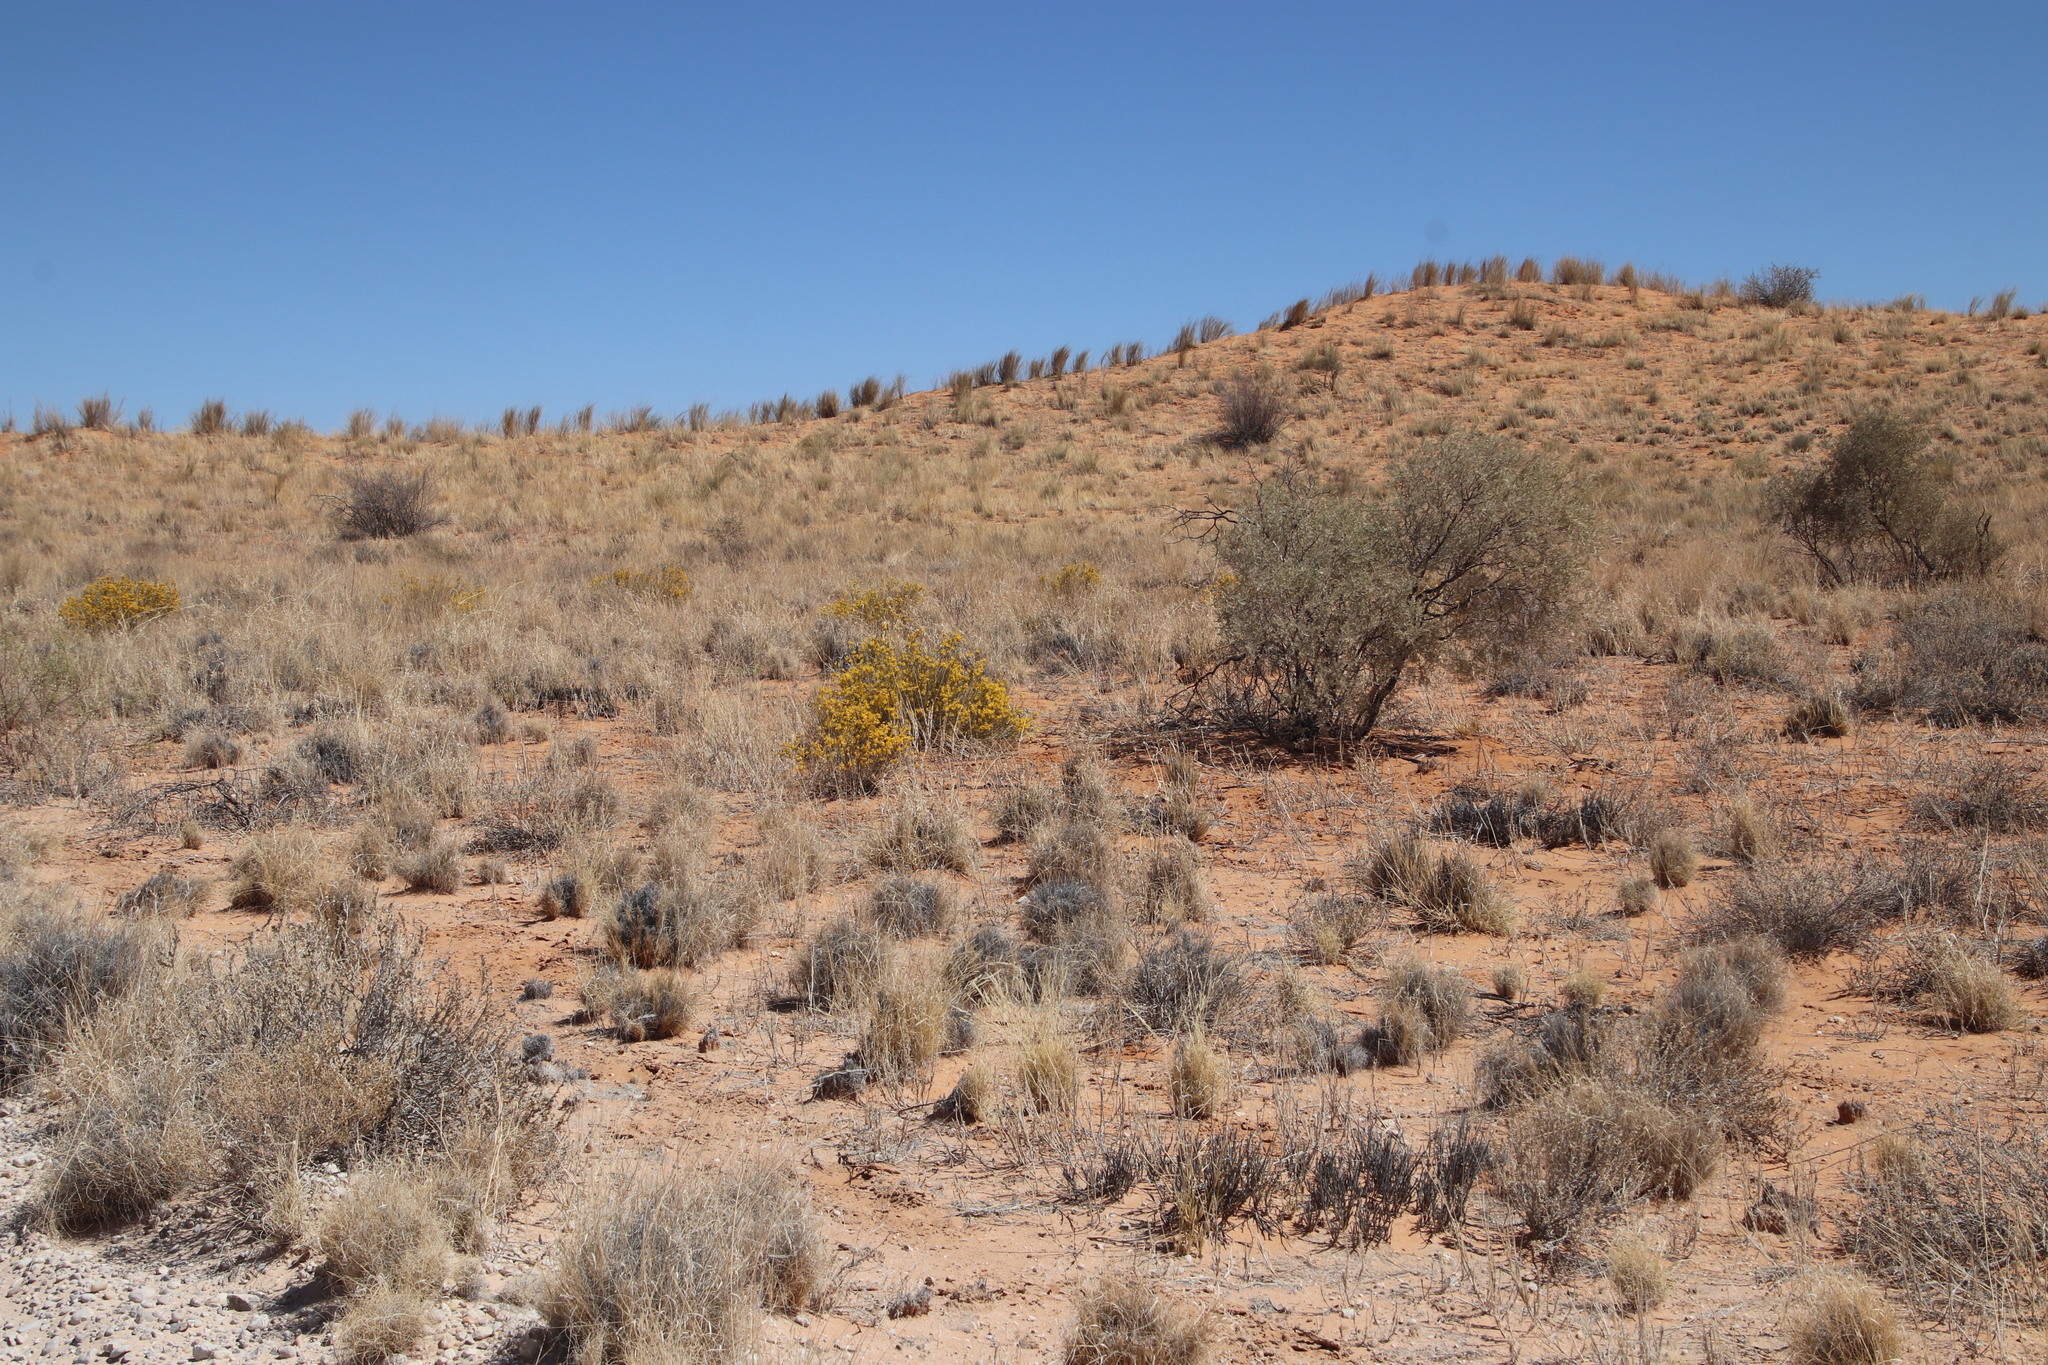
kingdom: Plantae
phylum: Tracheophyta
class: Magnoliopsida
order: Malvales
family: Thymelaeaceae
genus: Gnidia
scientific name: Gnidia polycephala
